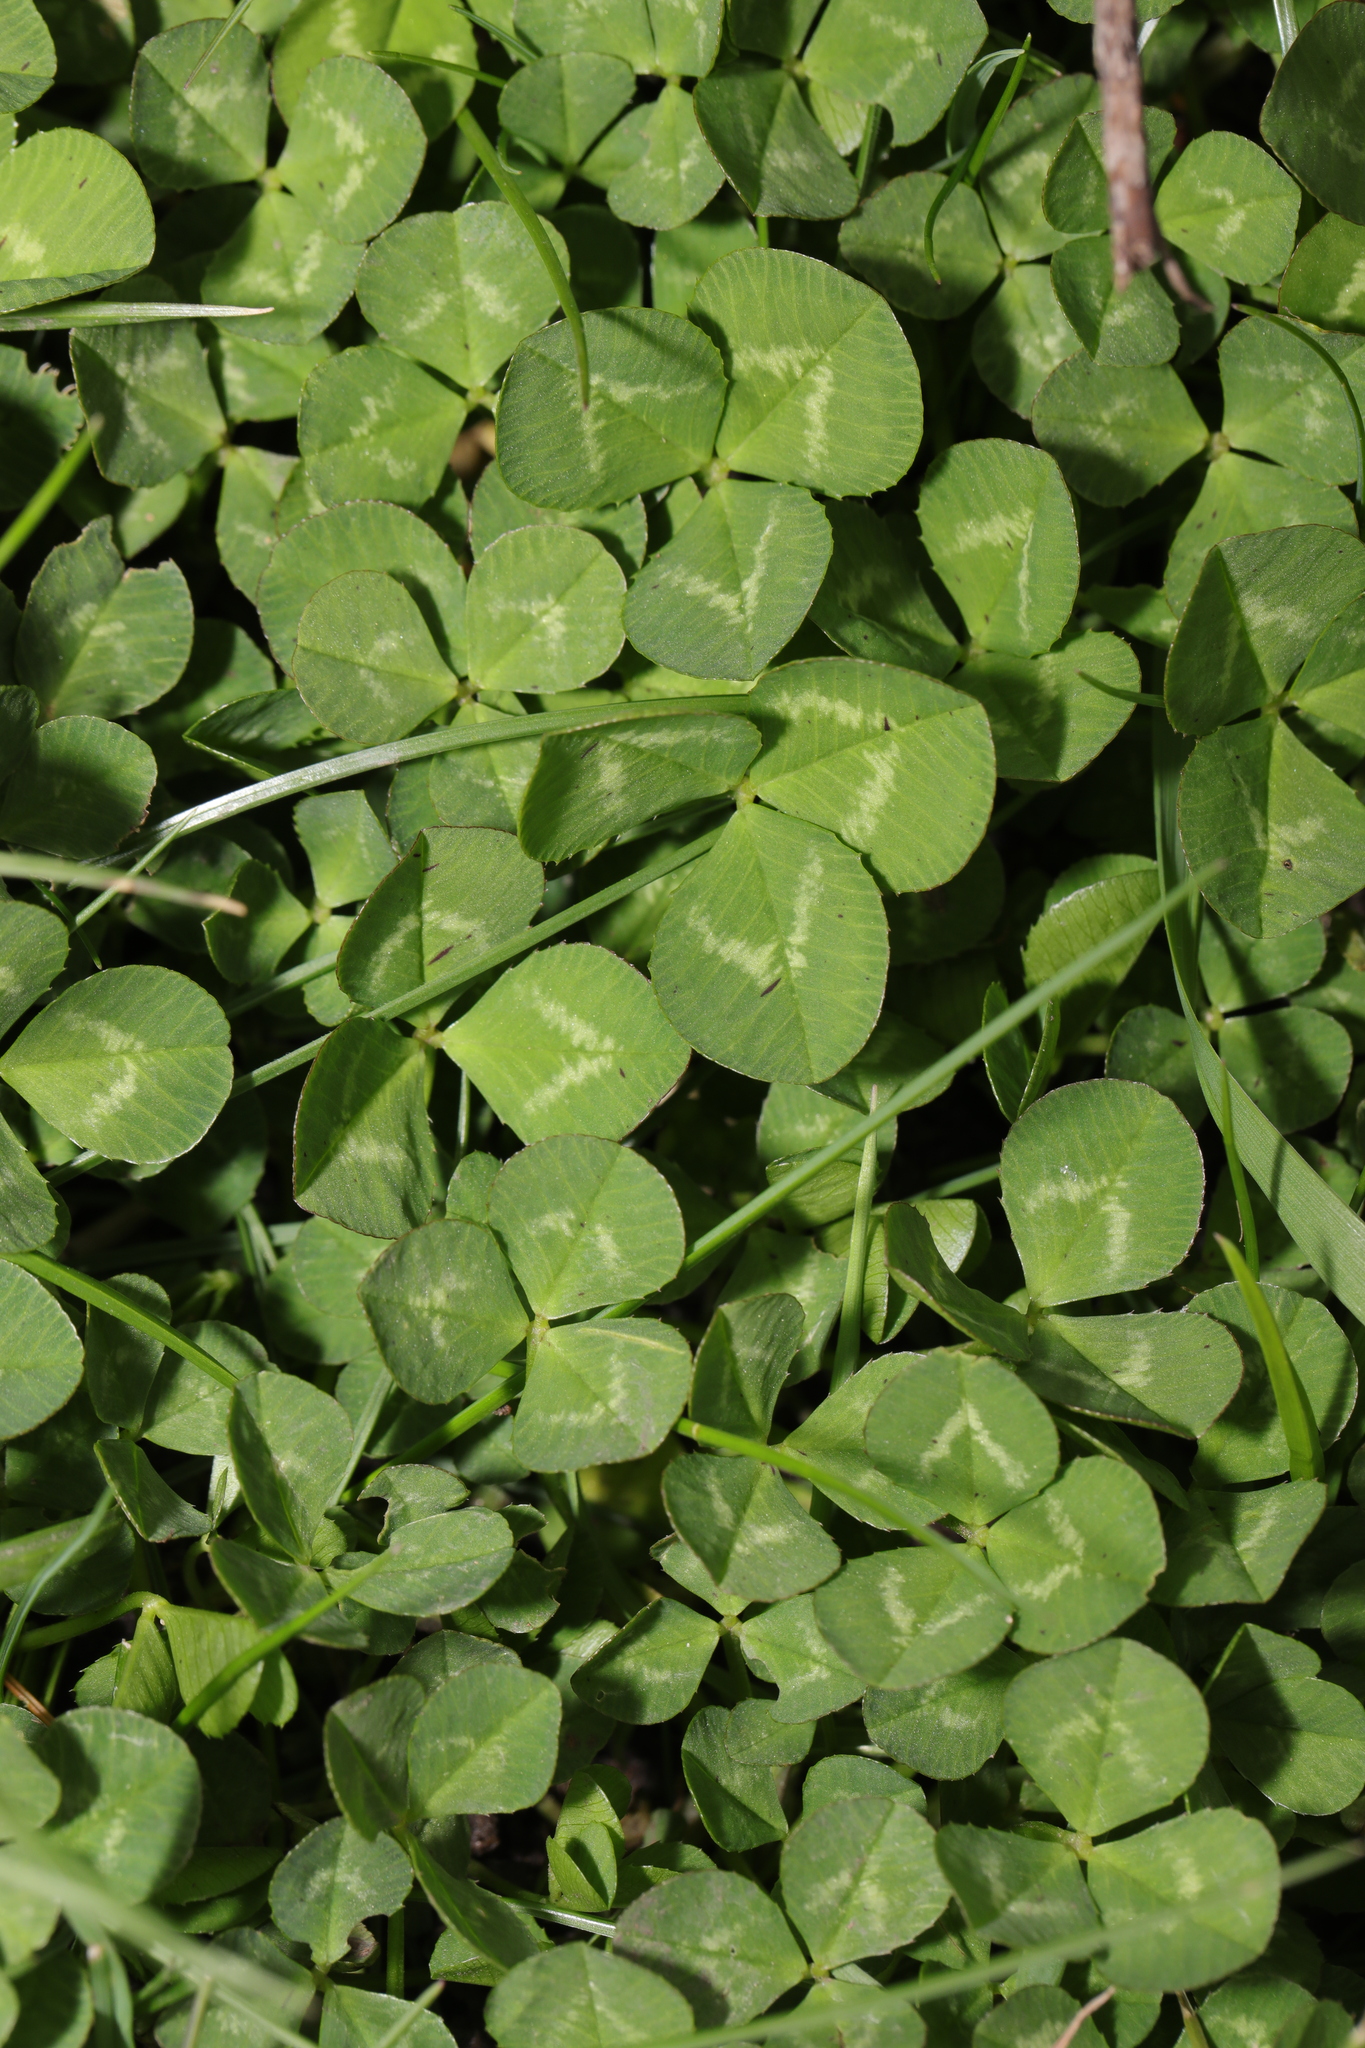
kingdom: Plantae
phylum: Tracheophyta
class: Magnoliopsida
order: Fabales
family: Fabaceae
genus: Trifolium
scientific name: Trifolium repens
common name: White clover
